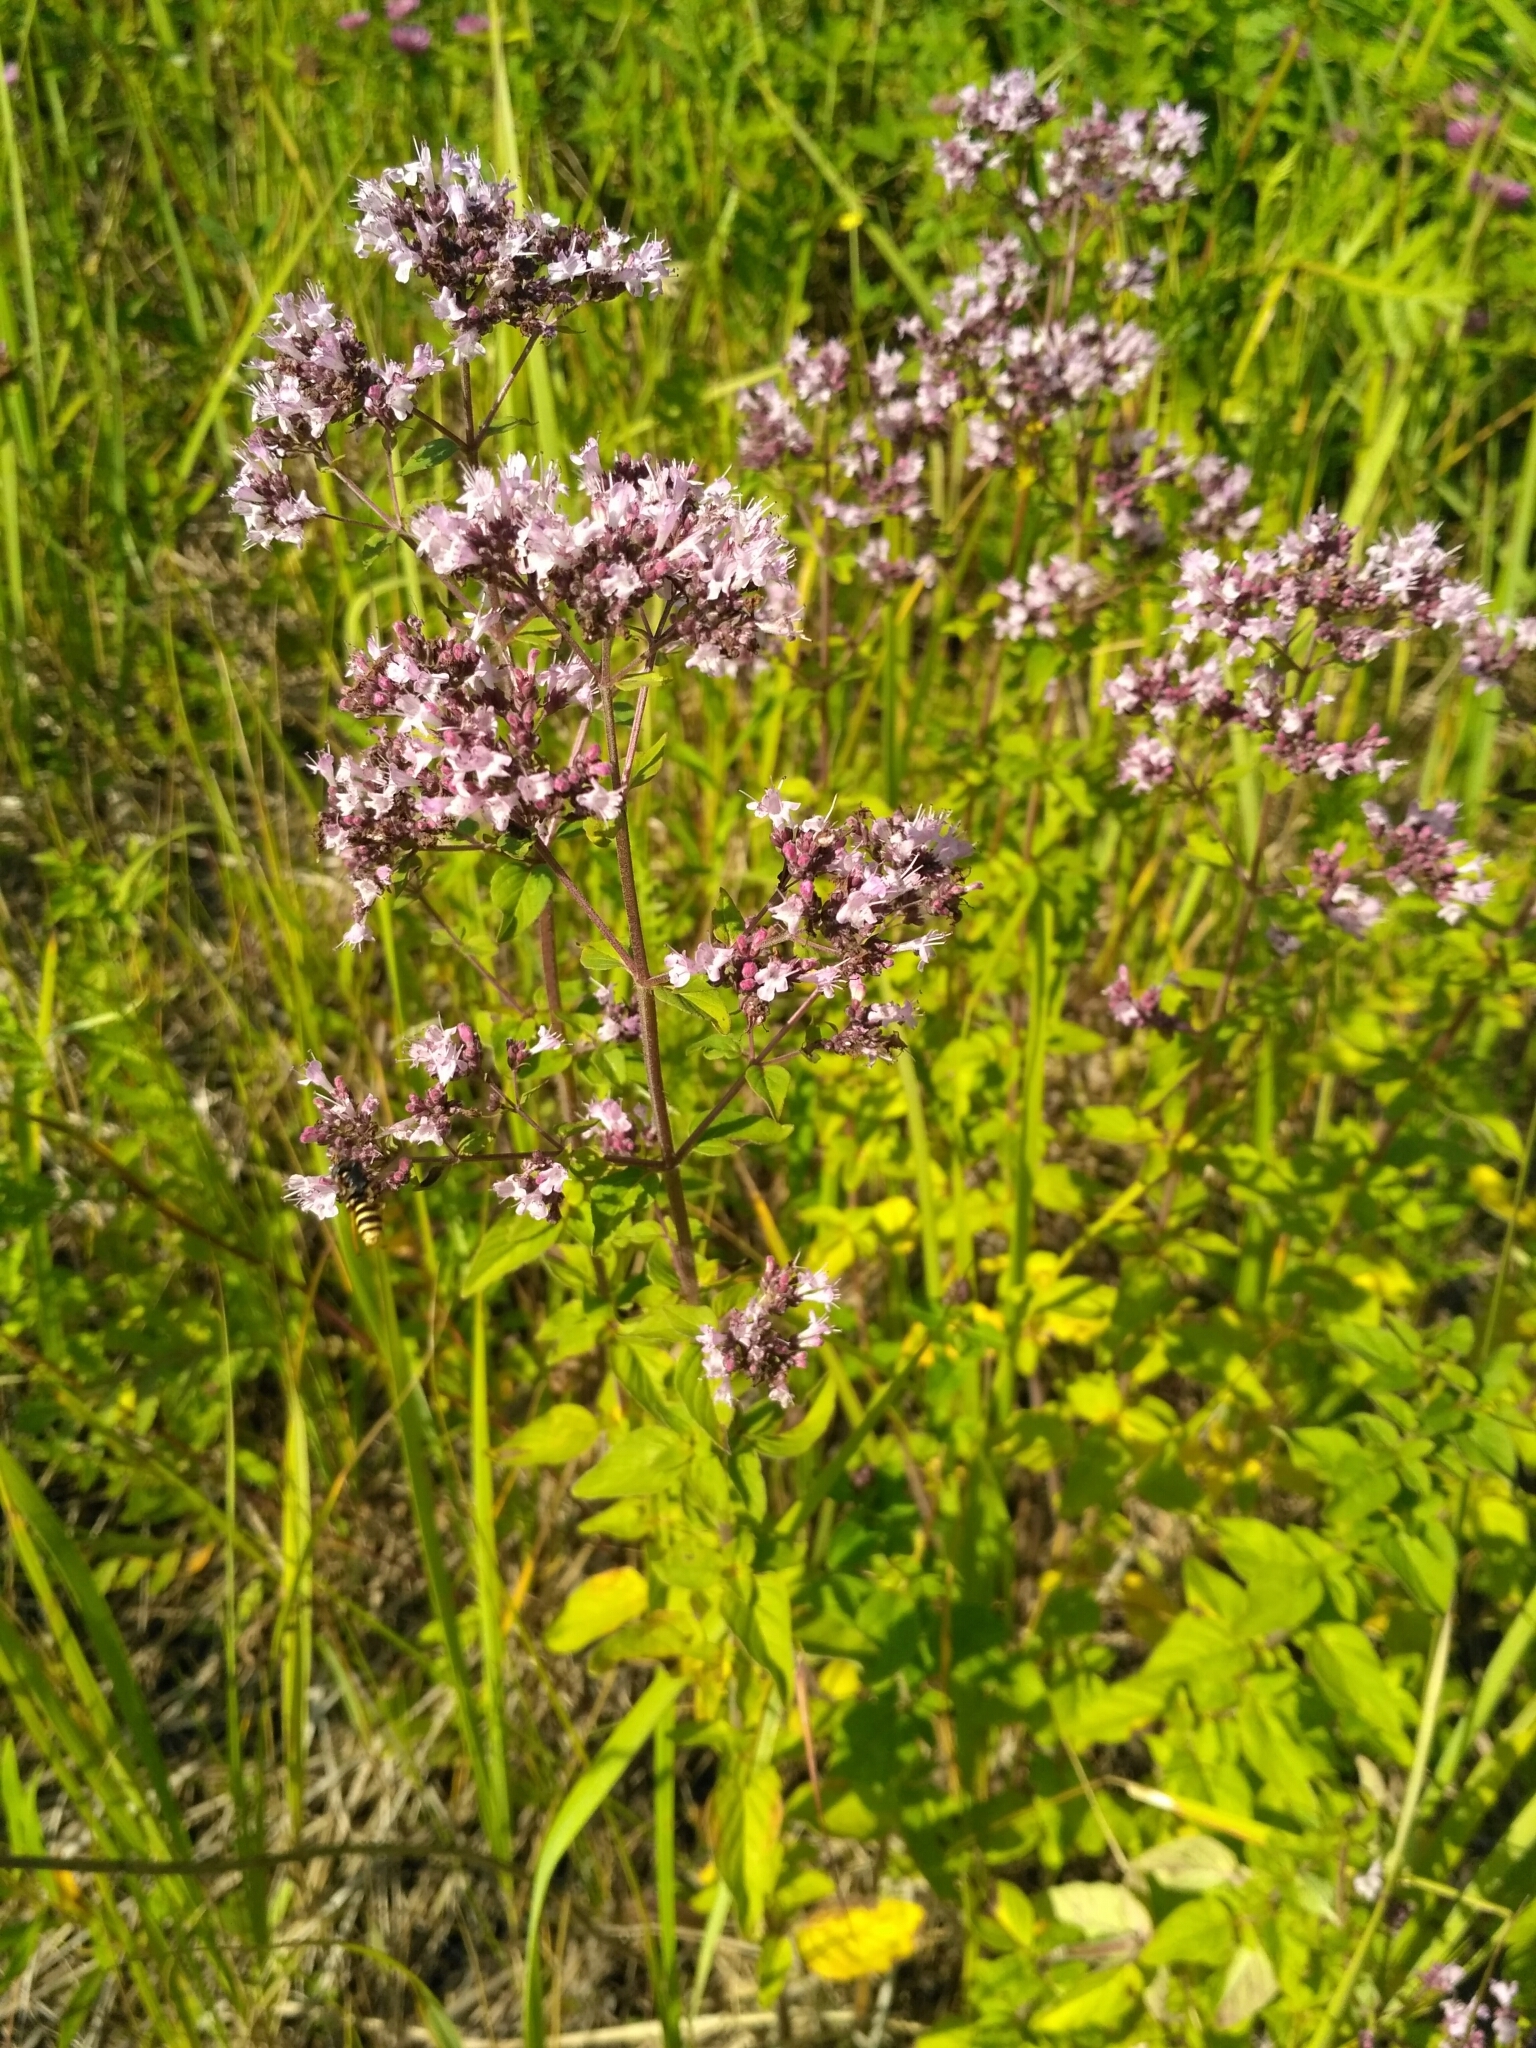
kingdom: Plantae
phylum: Tracheophyta
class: Magnoliopsida
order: Lamiales
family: Lamiaceae
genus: Origanum
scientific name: Origanum vulgare
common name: Wild marjoram
